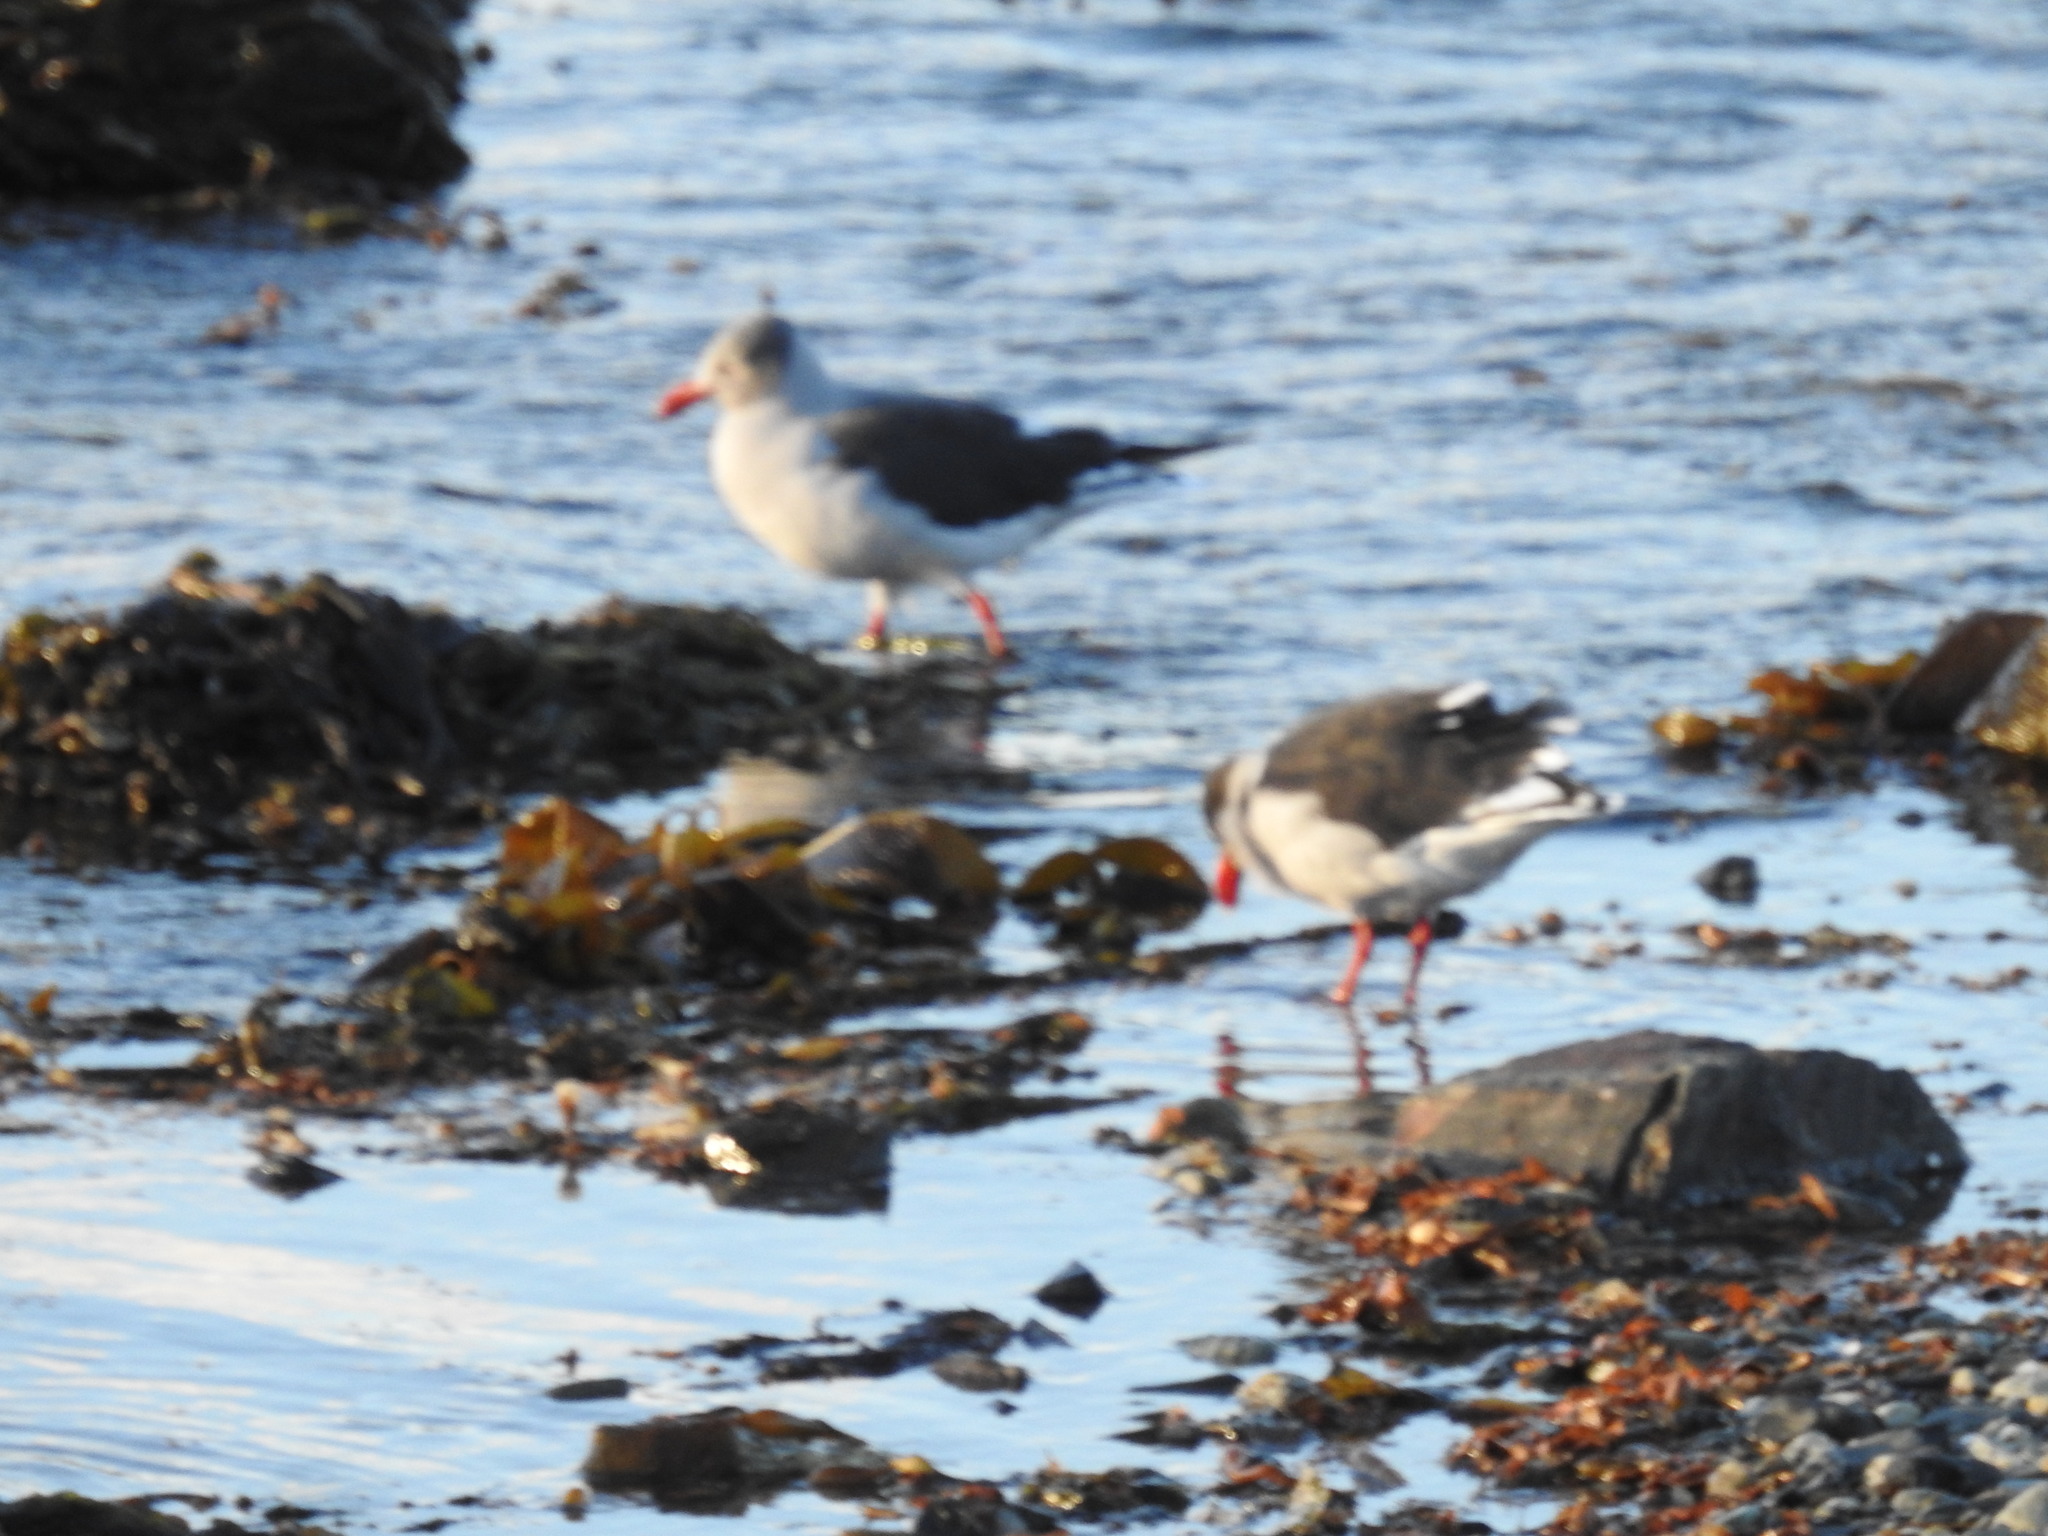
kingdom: Animalia
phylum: Chordata
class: Aves
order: Charadriiformes
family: Laridae
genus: Leucophaeus
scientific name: Leucophaeus scoresbii
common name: Dolphin gull
